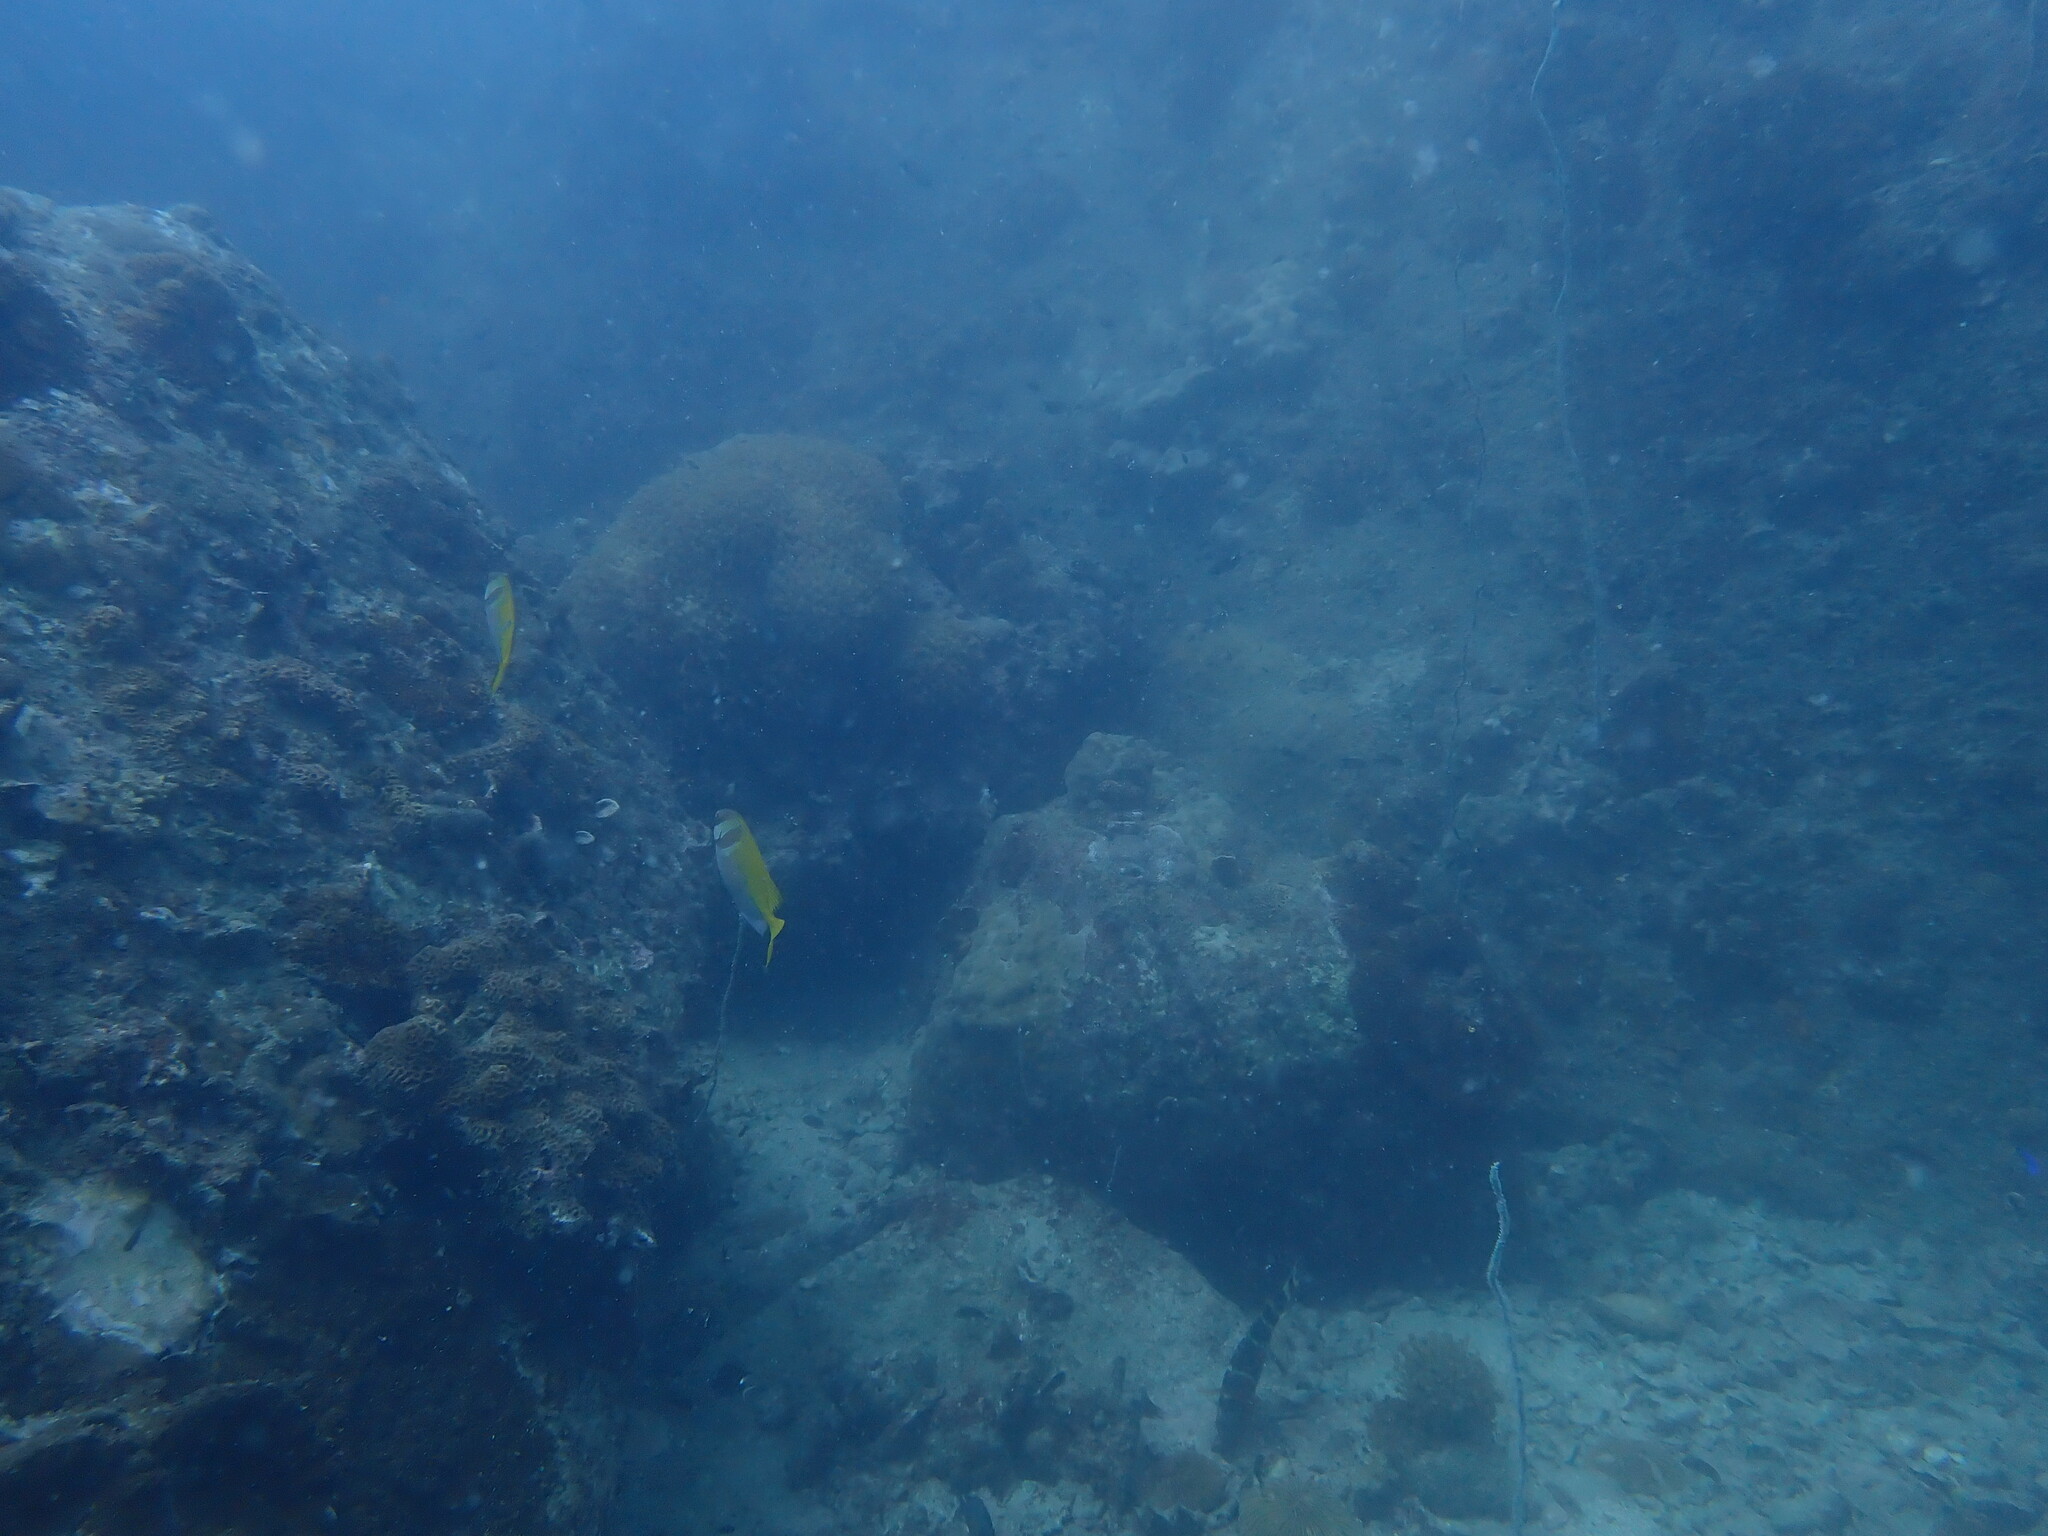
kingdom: Animalia
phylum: Chordata
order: Perciformes
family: Siganidae
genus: Siganus
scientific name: Siganus virgatus
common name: Barhead spinefoot
